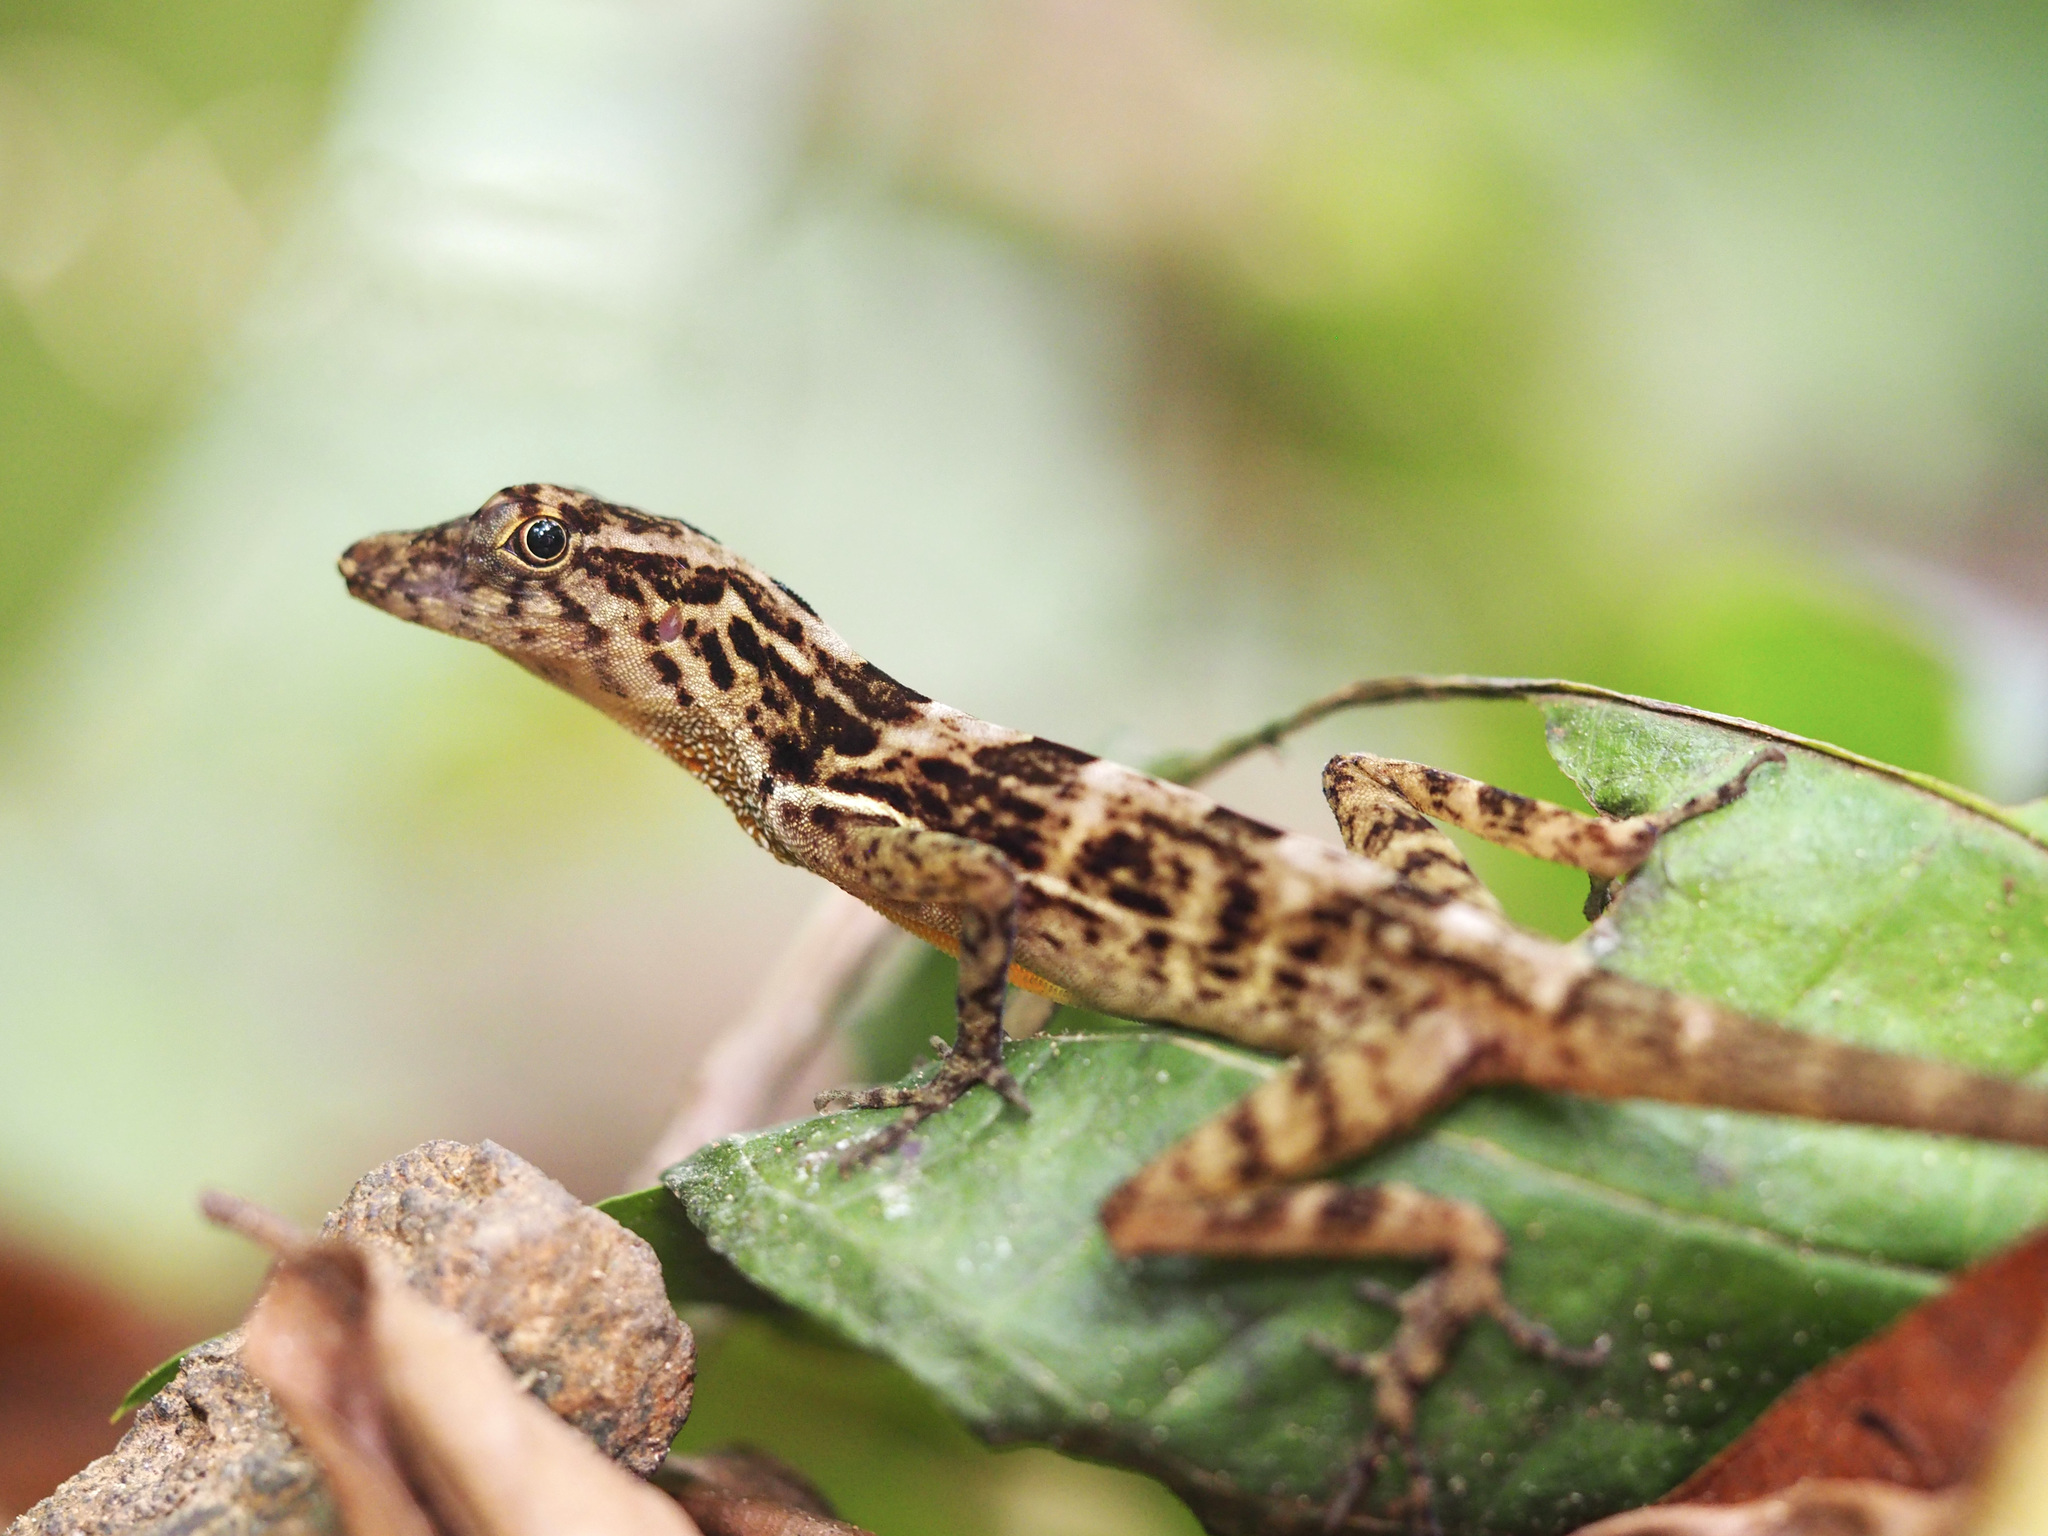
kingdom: Animalia
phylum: Chordata
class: Squamata
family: Dactyloidae
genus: Anolis
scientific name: Anolis osa
